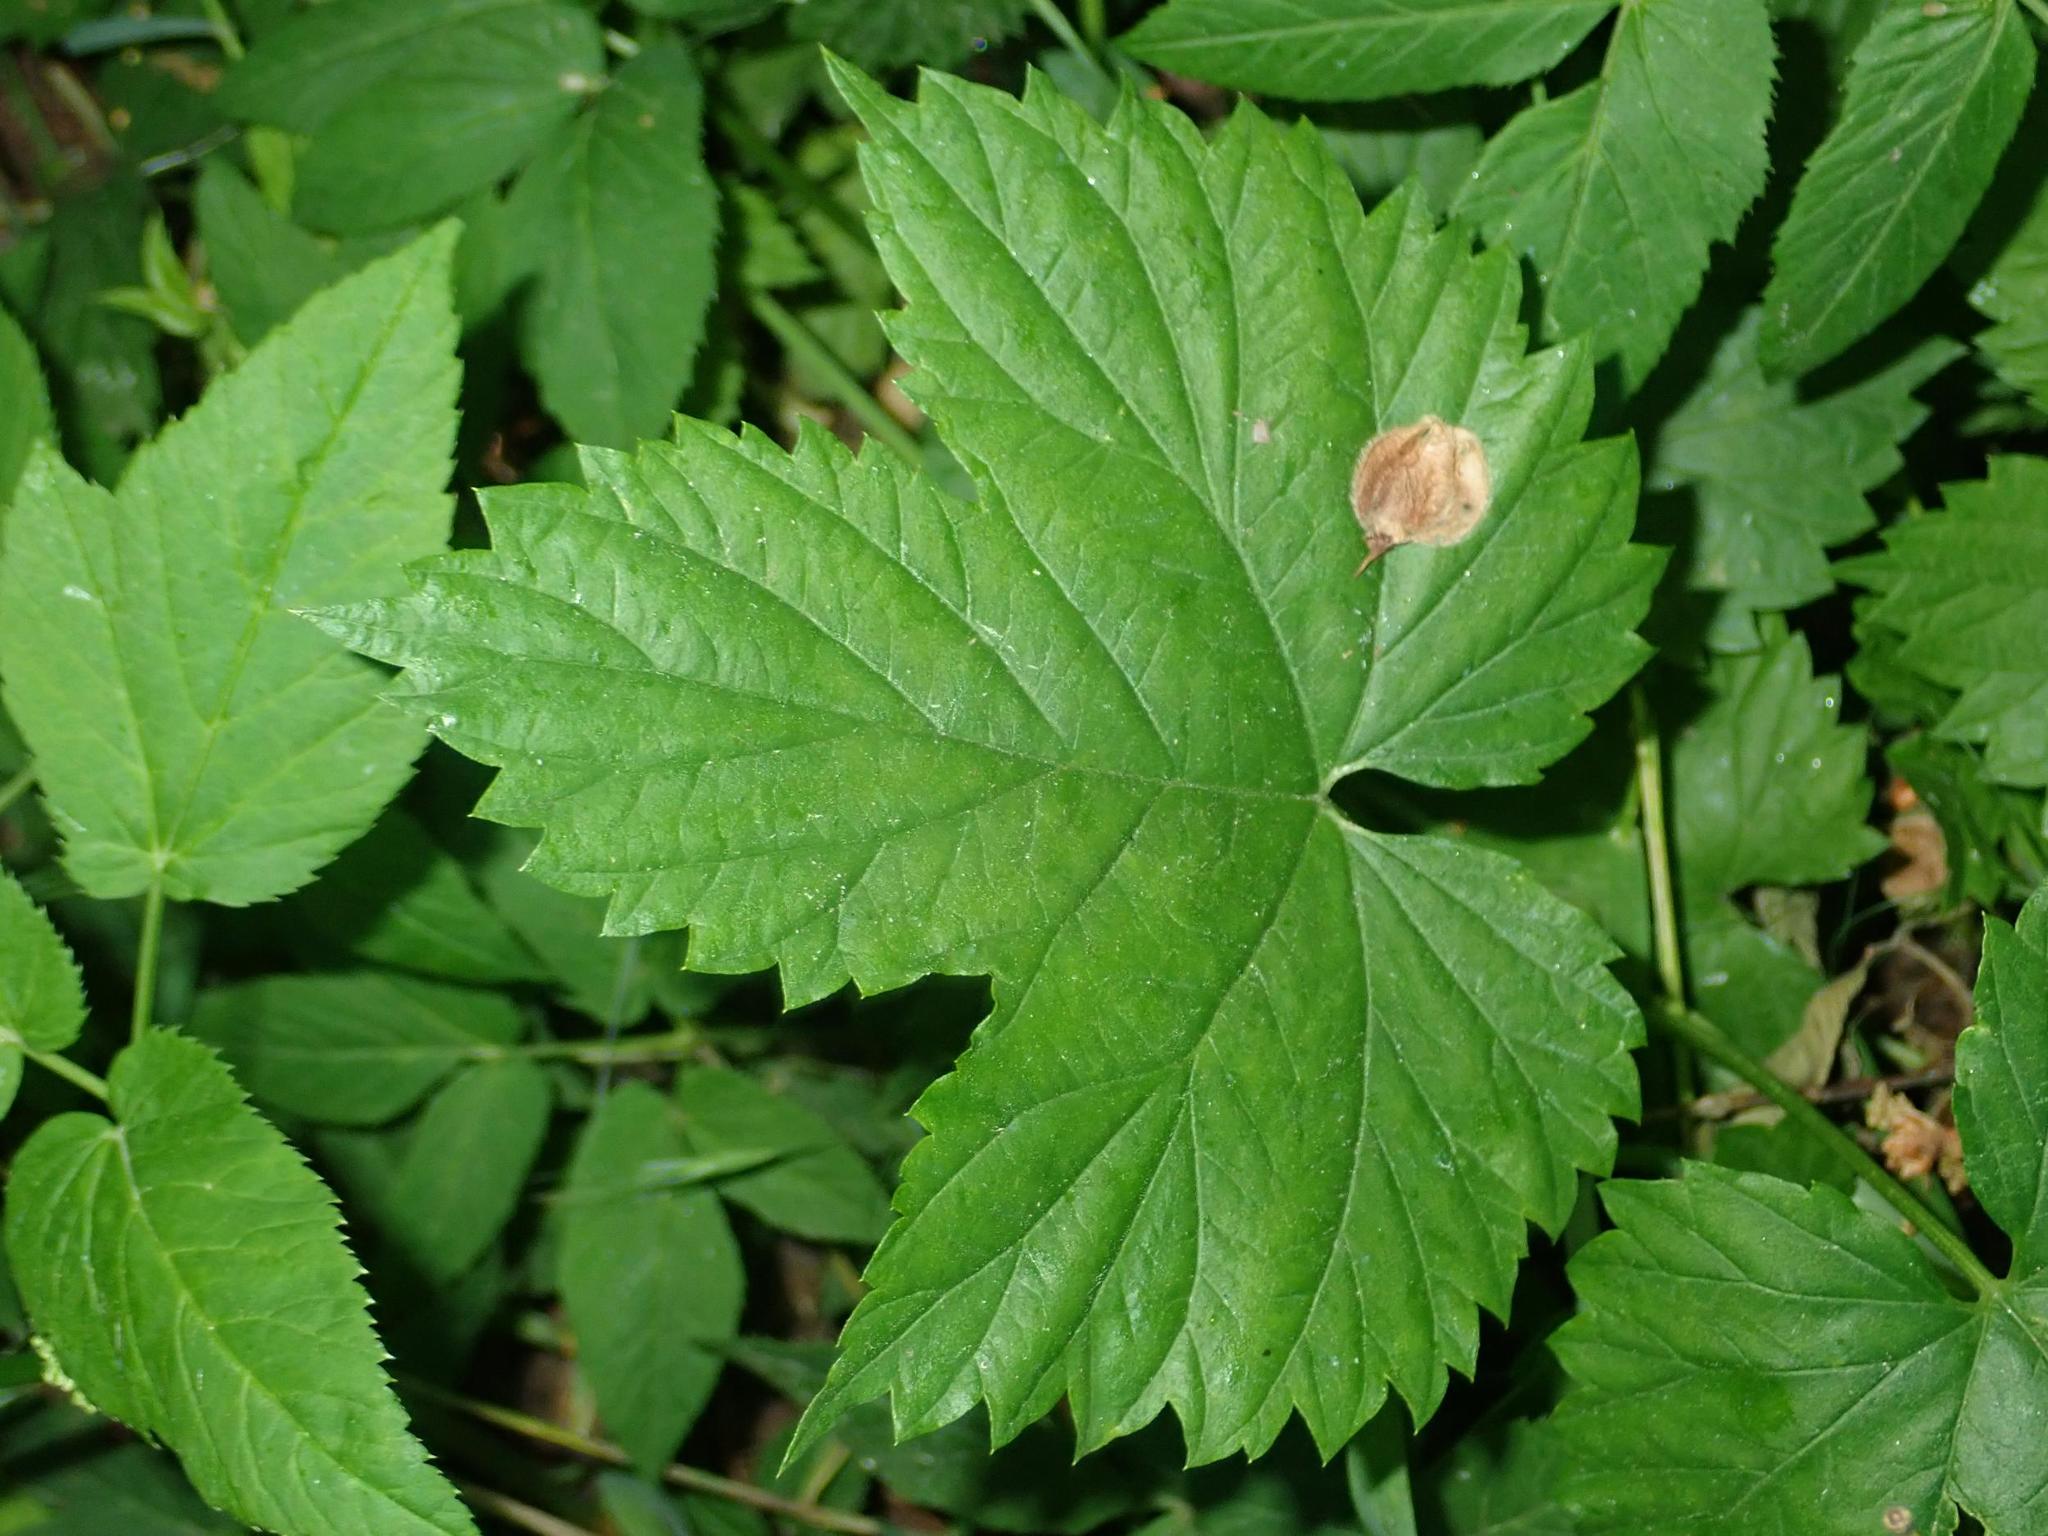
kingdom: Plantae
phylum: Tracheophyta
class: Magnoliopsida
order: Rosales
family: Cannabaceae
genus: Humulus
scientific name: Humulus lupulus
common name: Hop
